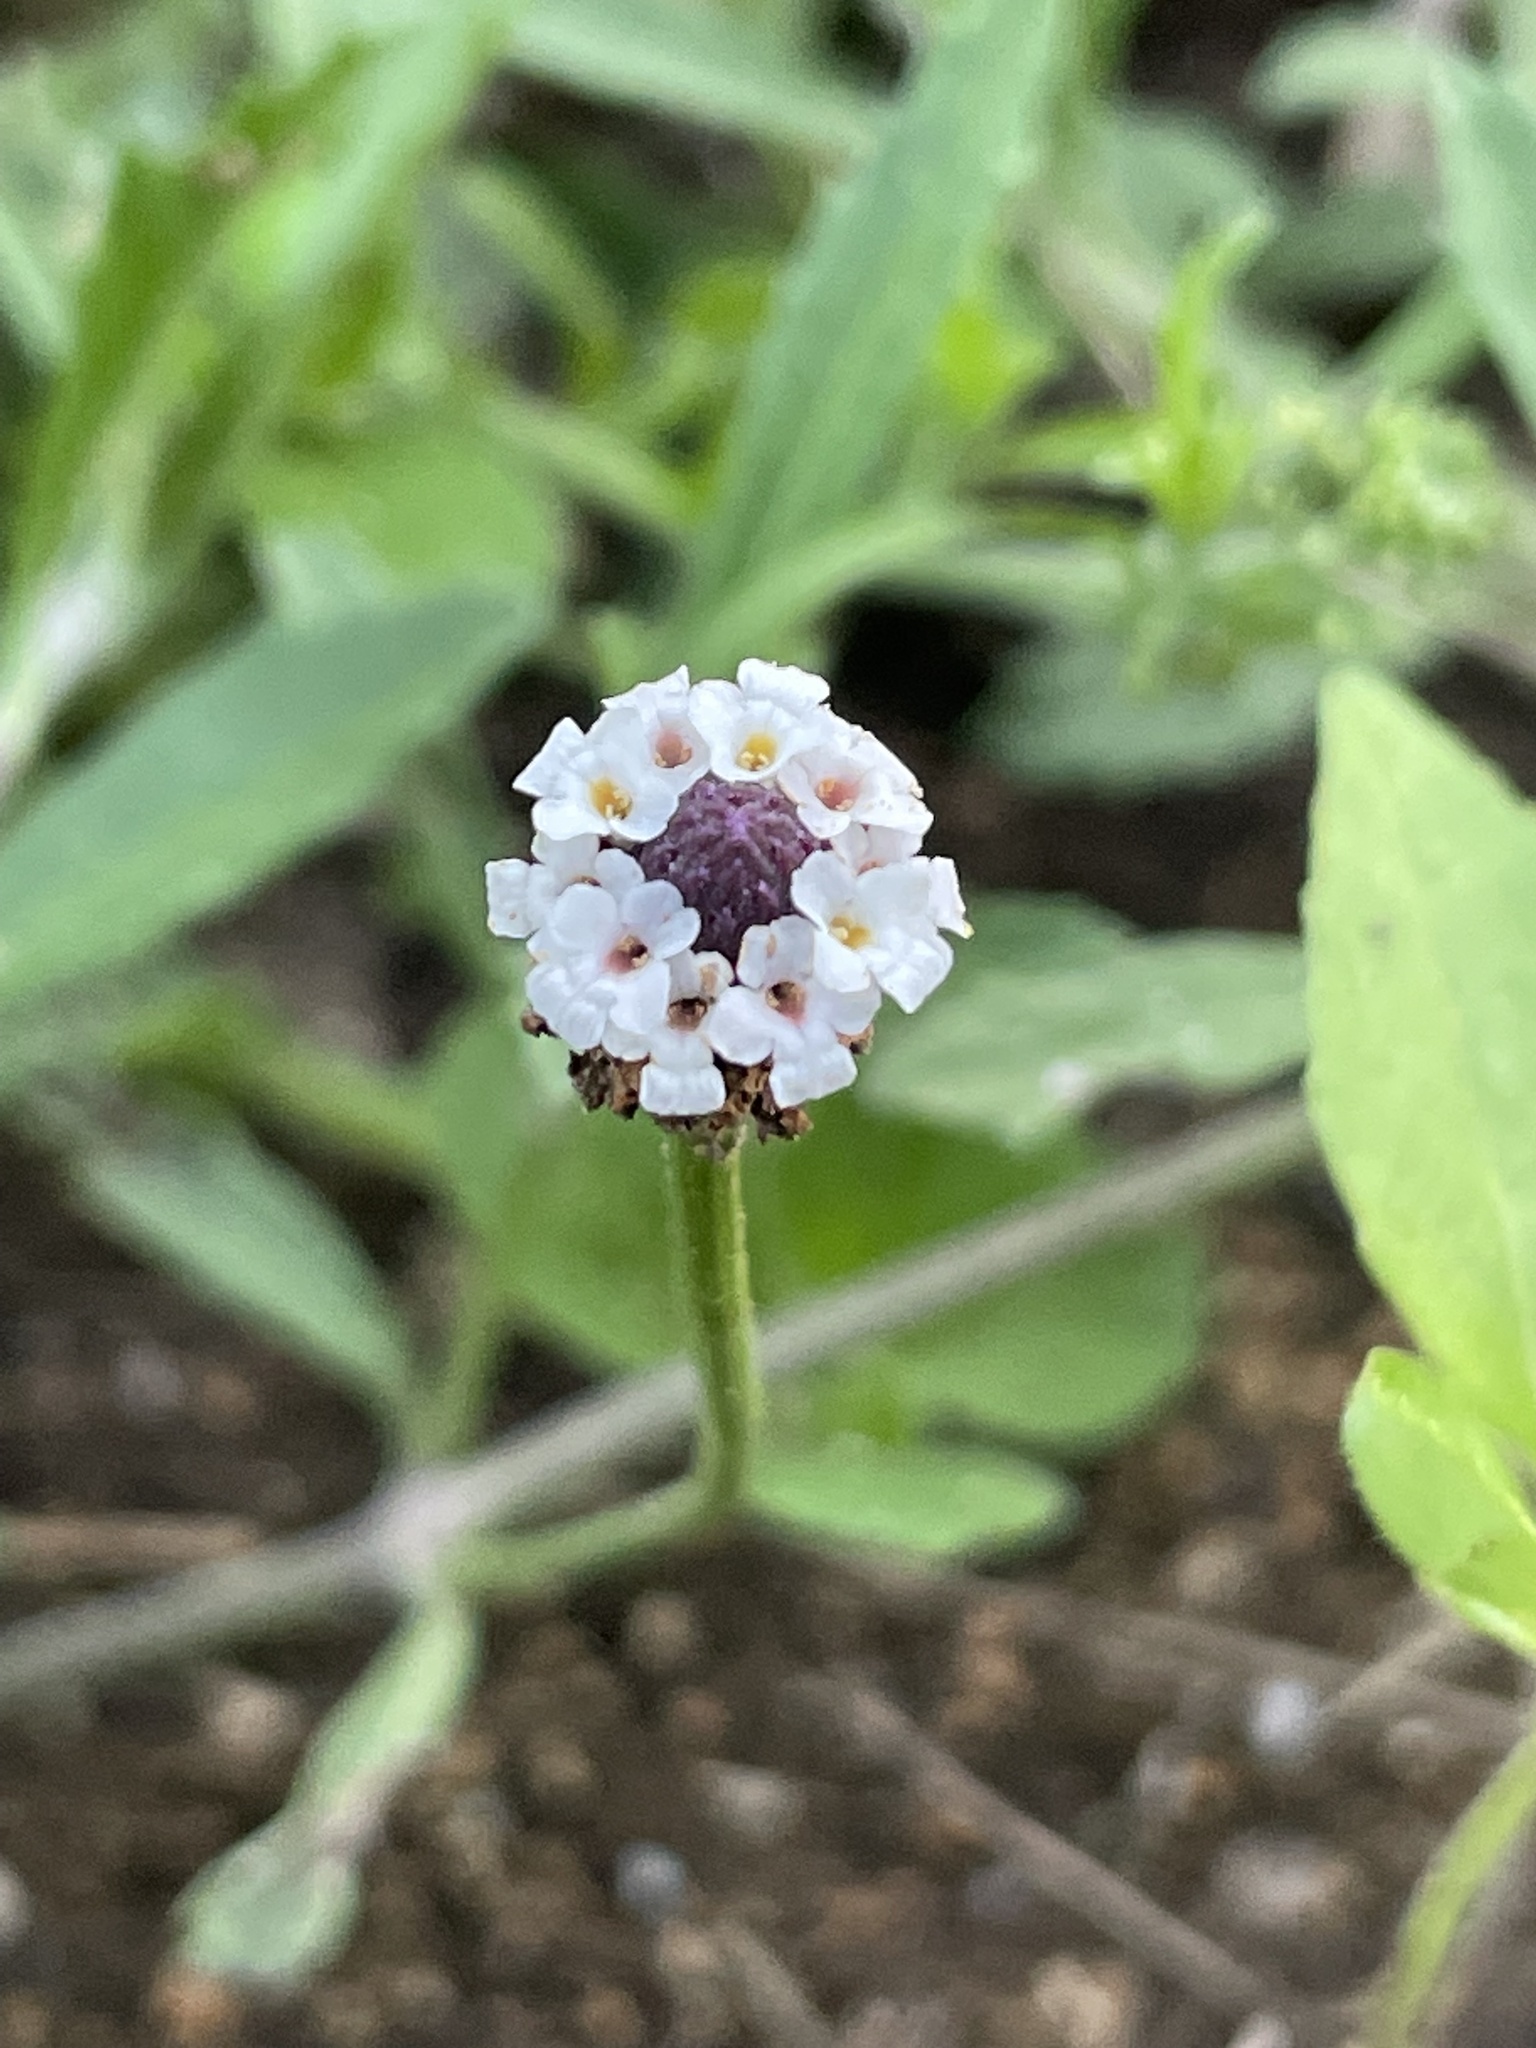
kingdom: Plantae
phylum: Tracheophyta
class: Magnoliopsida
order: Lamiales
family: Verbenaceae
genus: Phyla
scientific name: Phyla nodiflora
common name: Frogfruit
